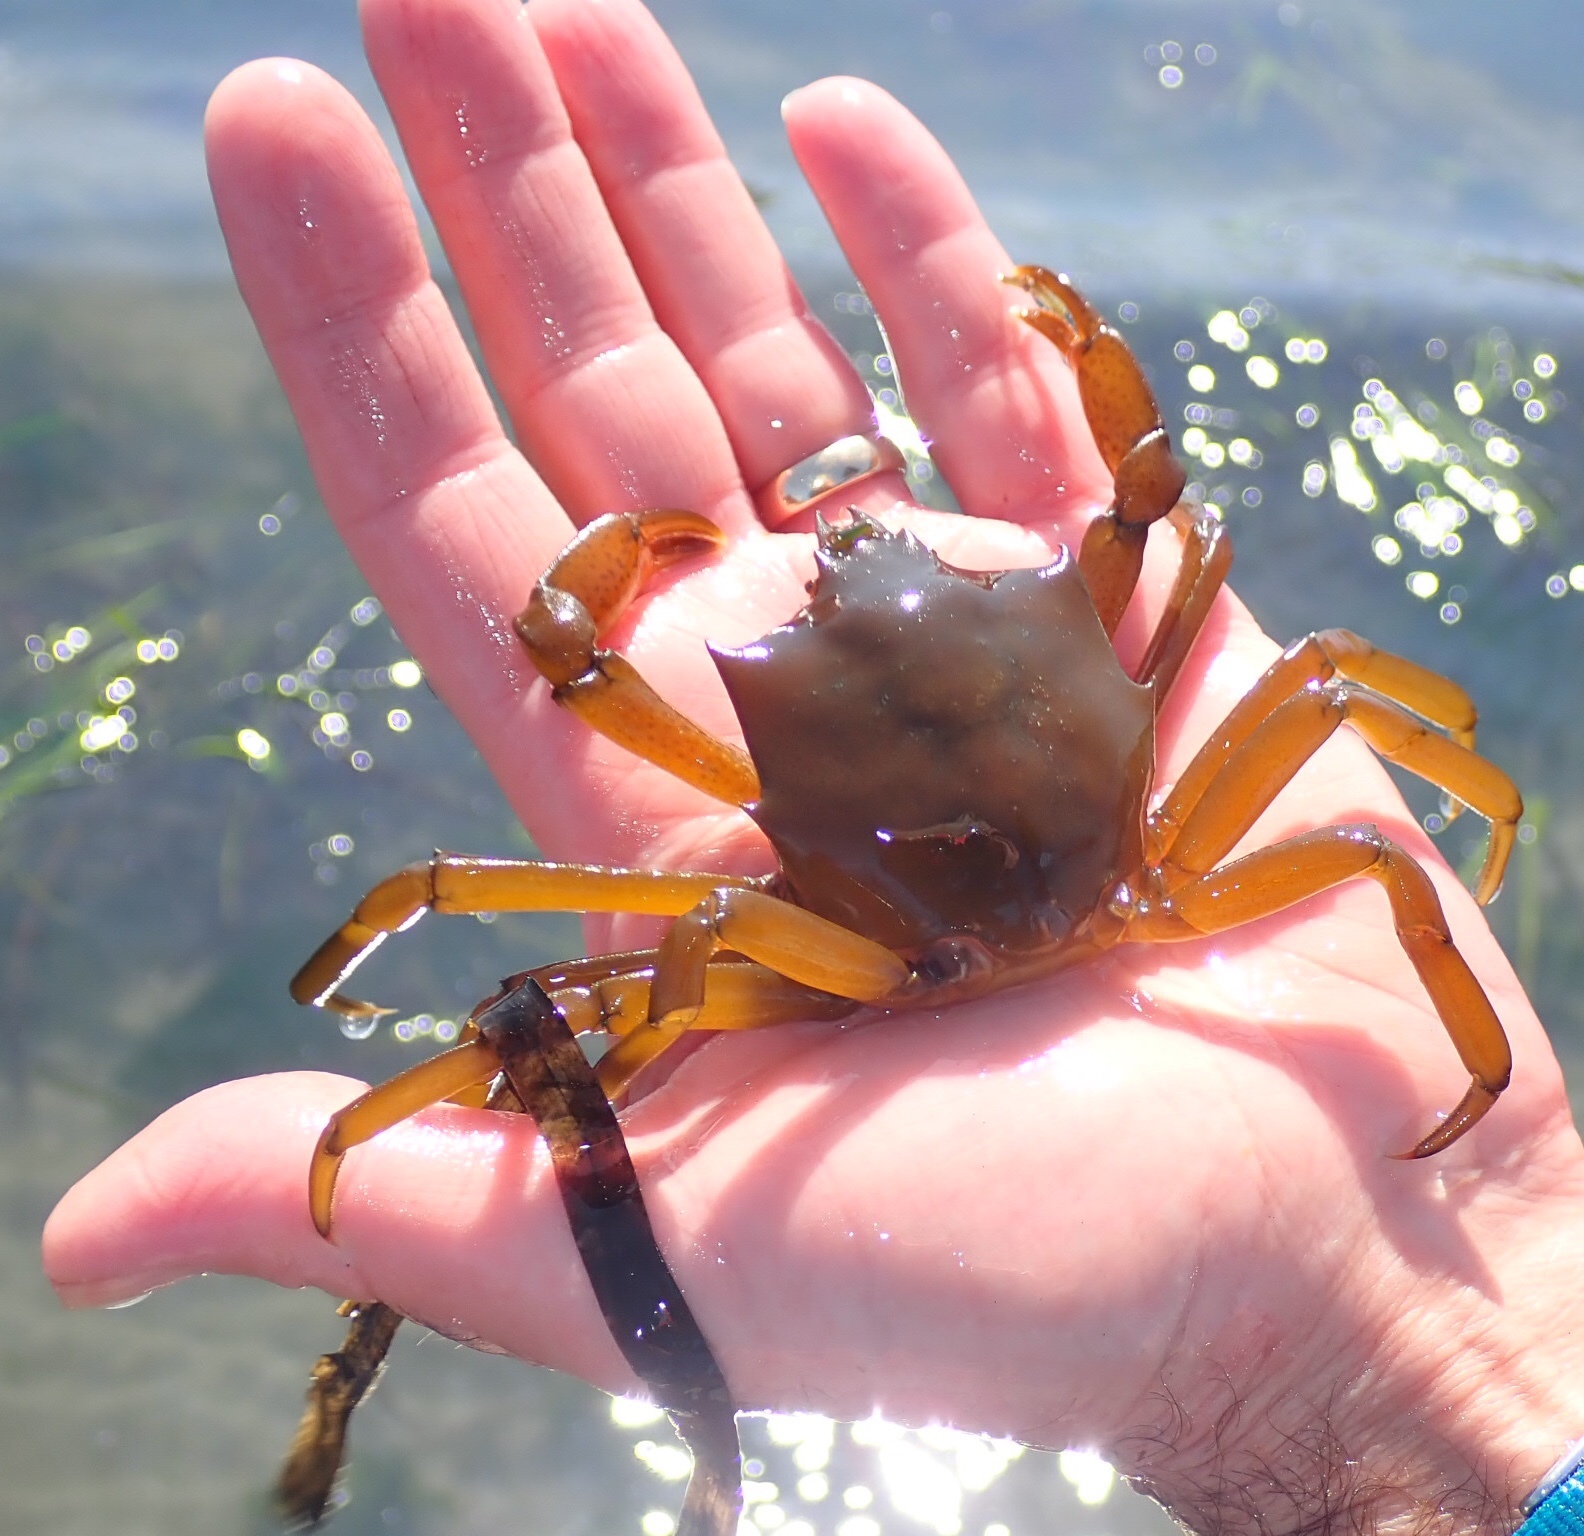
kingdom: Animalia
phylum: Arthropoda
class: Malacostraca
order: Decapoda
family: Epialtidae
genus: Pugettia
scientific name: Pugettia producta
